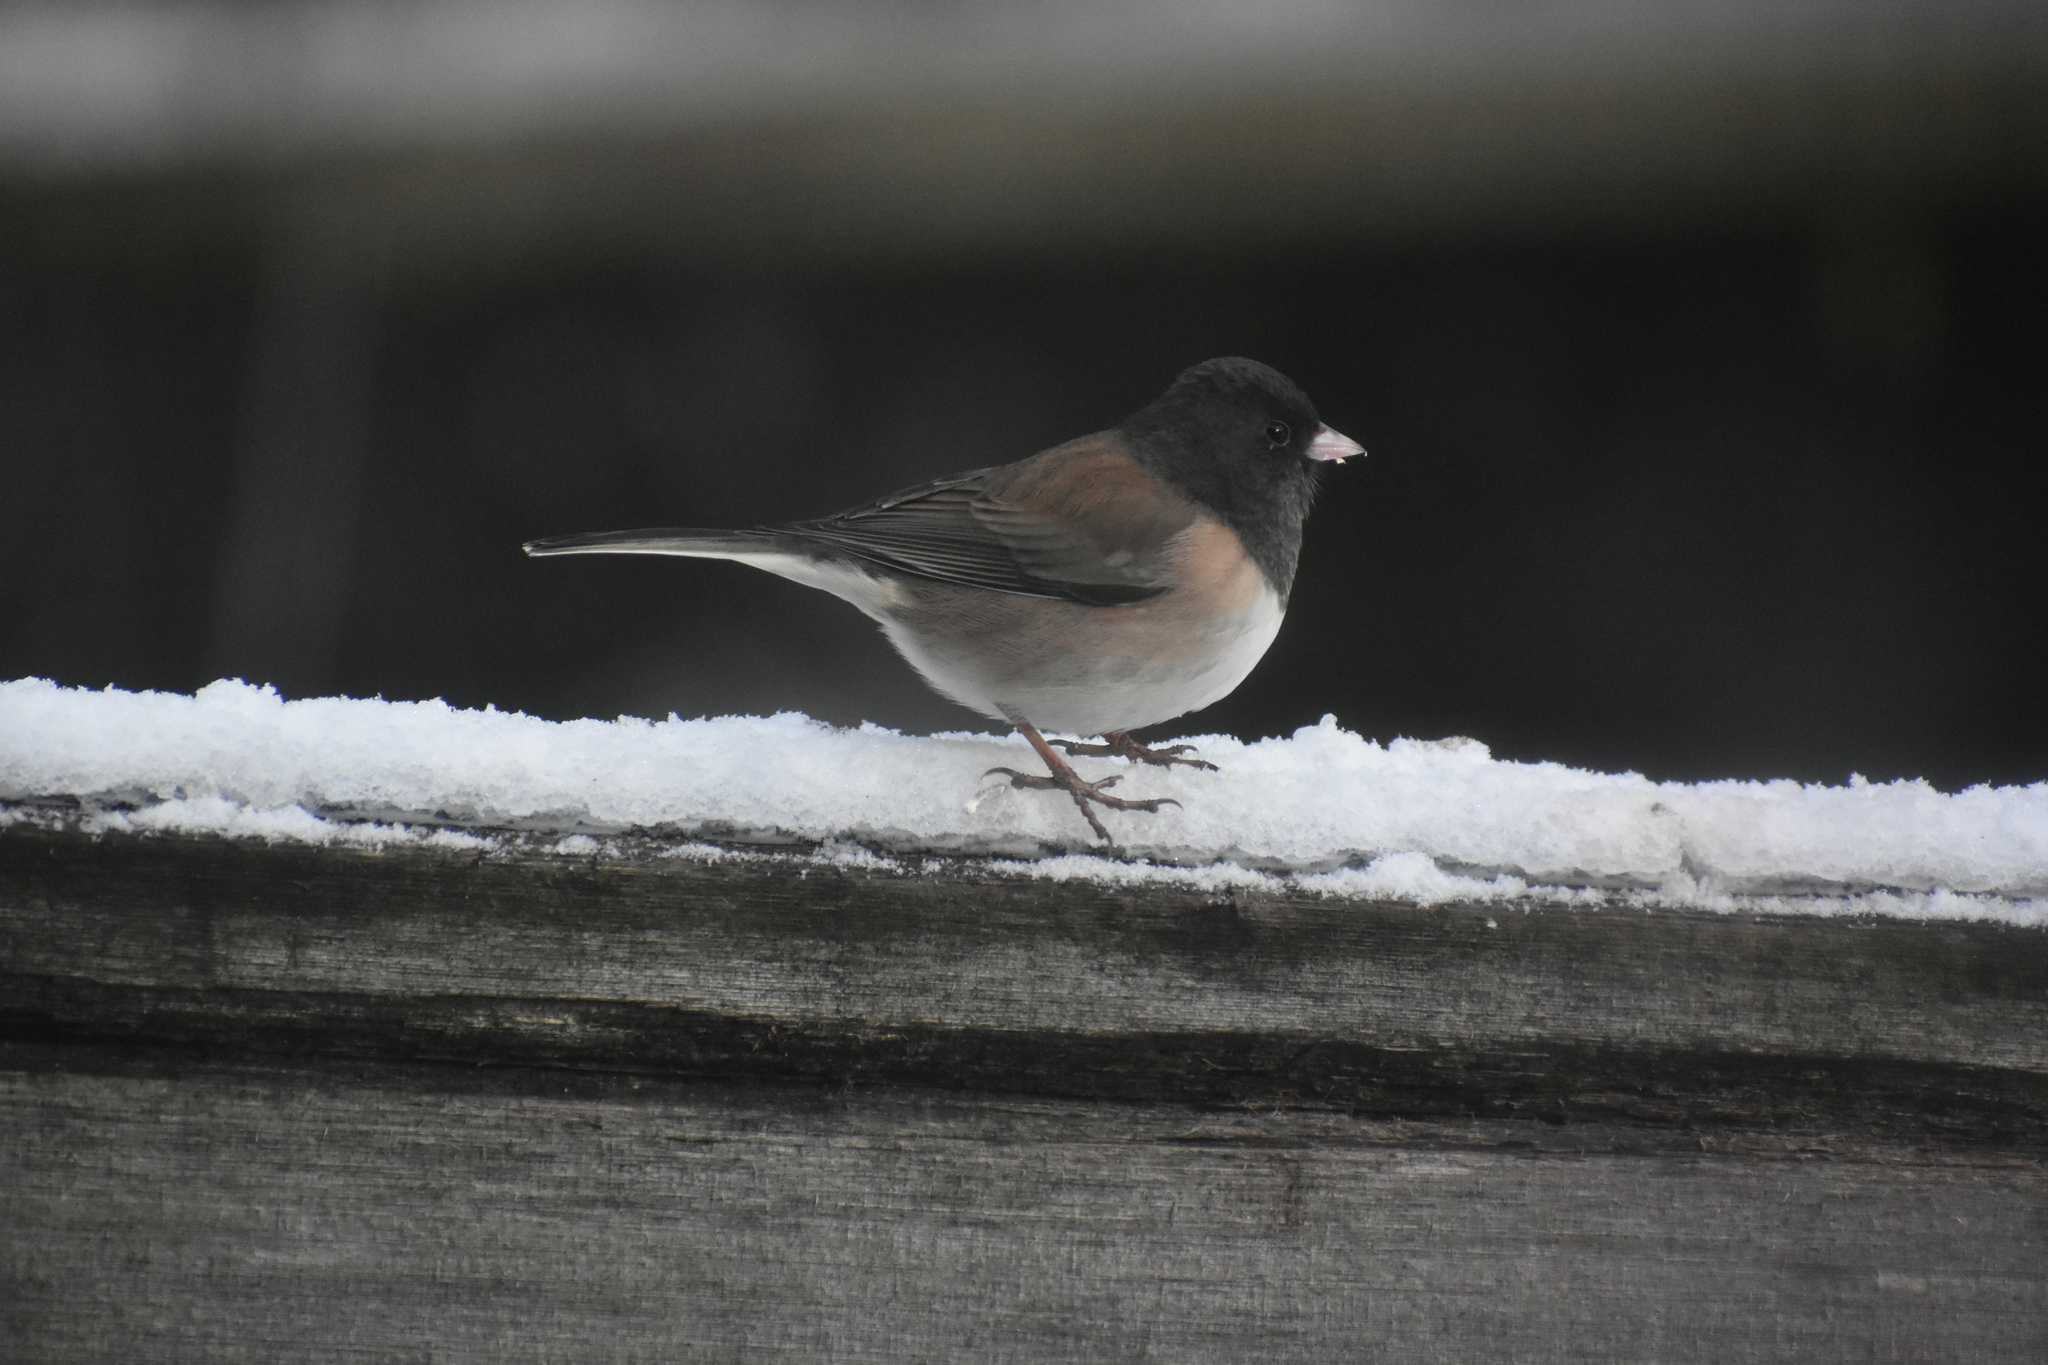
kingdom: Animalia
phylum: Chordata
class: Aves
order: Passeriformes
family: Passerellidae
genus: Junco
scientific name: Junco hyemalis
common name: Dark-eyed junco
